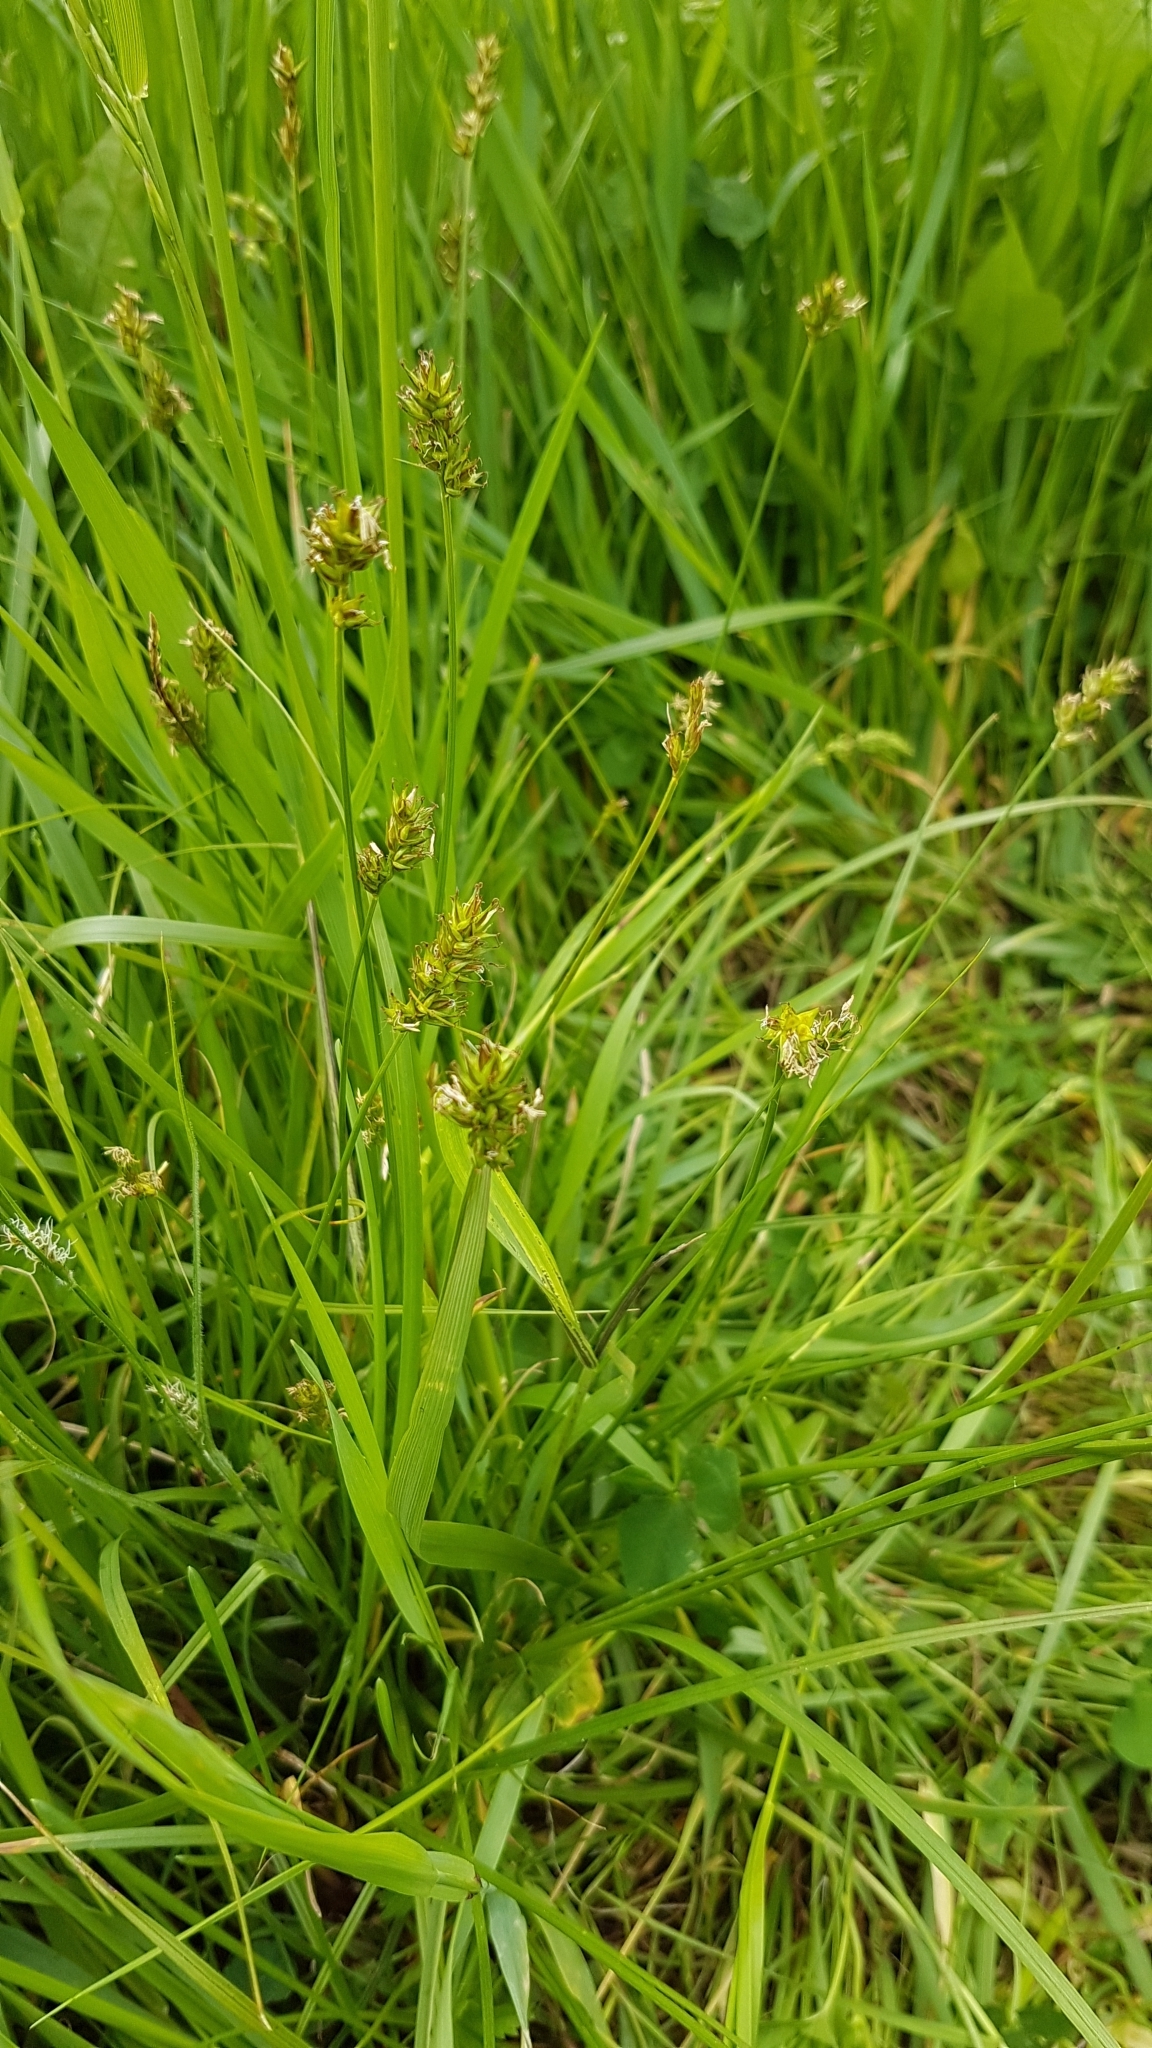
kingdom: Plantae
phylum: Tracheophyta
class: Liliopsida
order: Poales
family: Cyperaceae
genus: Carex
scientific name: Carex spicata
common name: Spiked sedge
